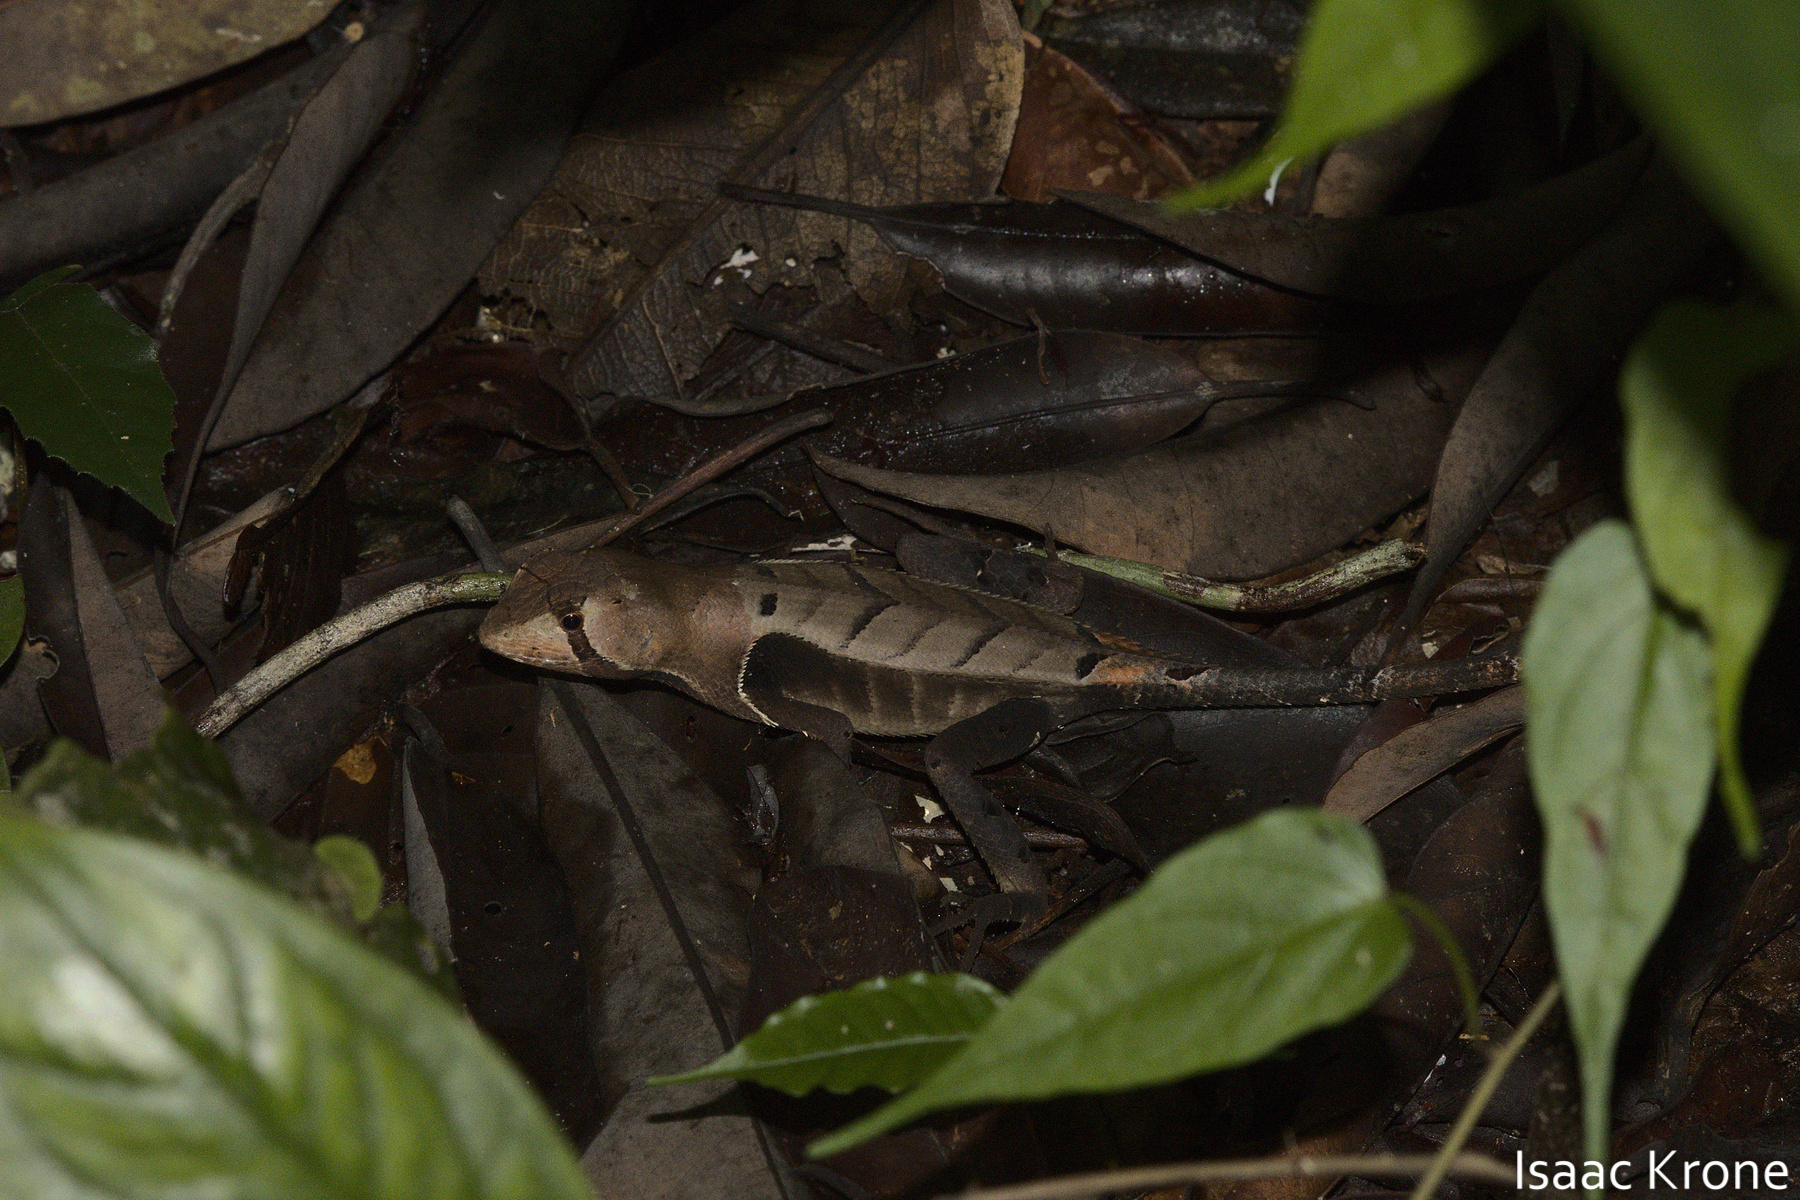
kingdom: Animalia
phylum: Chordata
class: Squamata
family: Tropiduridae
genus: Stenocercus
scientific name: Stenocercus fimbriatus
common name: Western leaf lizard
